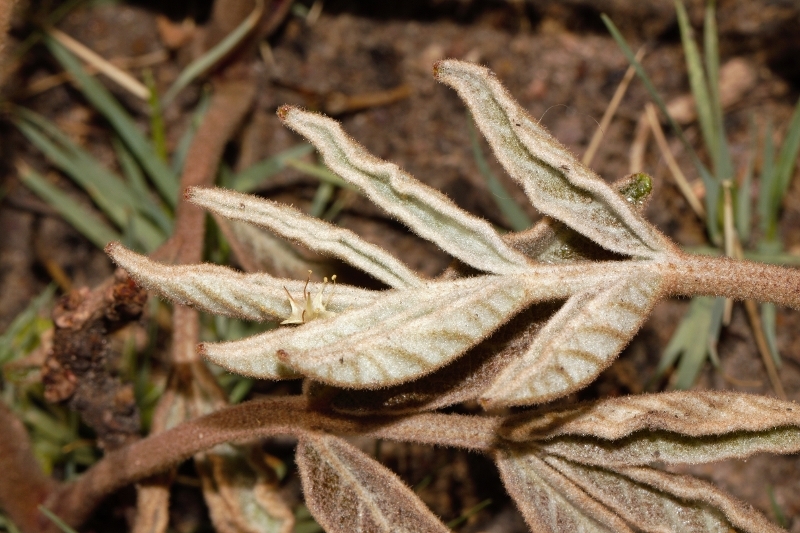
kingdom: Plantae
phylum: Tracheophyta
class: Magnoliopsida
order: Sapindales
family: Anacardiaceae
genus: Lannea
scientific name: Lannea edulis
